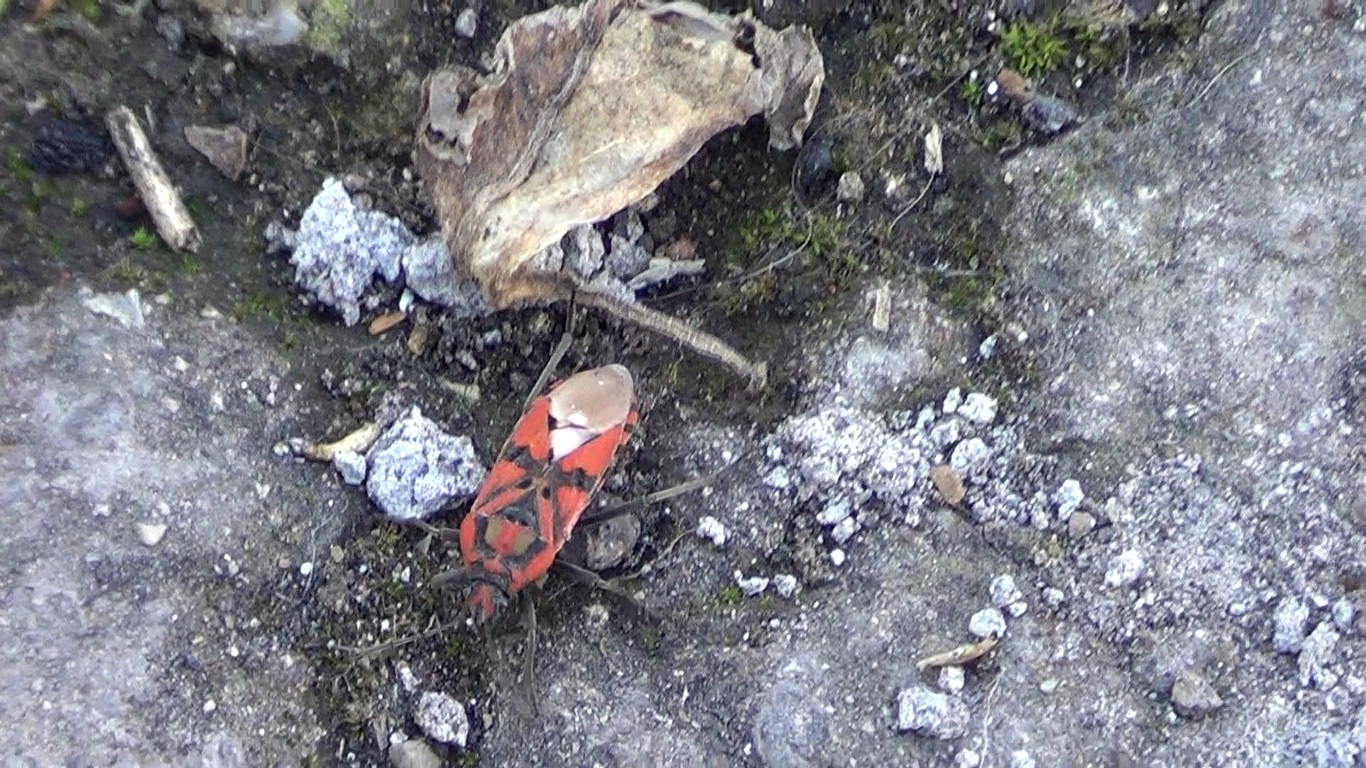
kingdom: Animalia
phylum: Arthropoda
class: Insecta
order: Hemiptera
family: Lygaeidae
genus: Spilostethus
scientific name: Spilostethus pandurus
